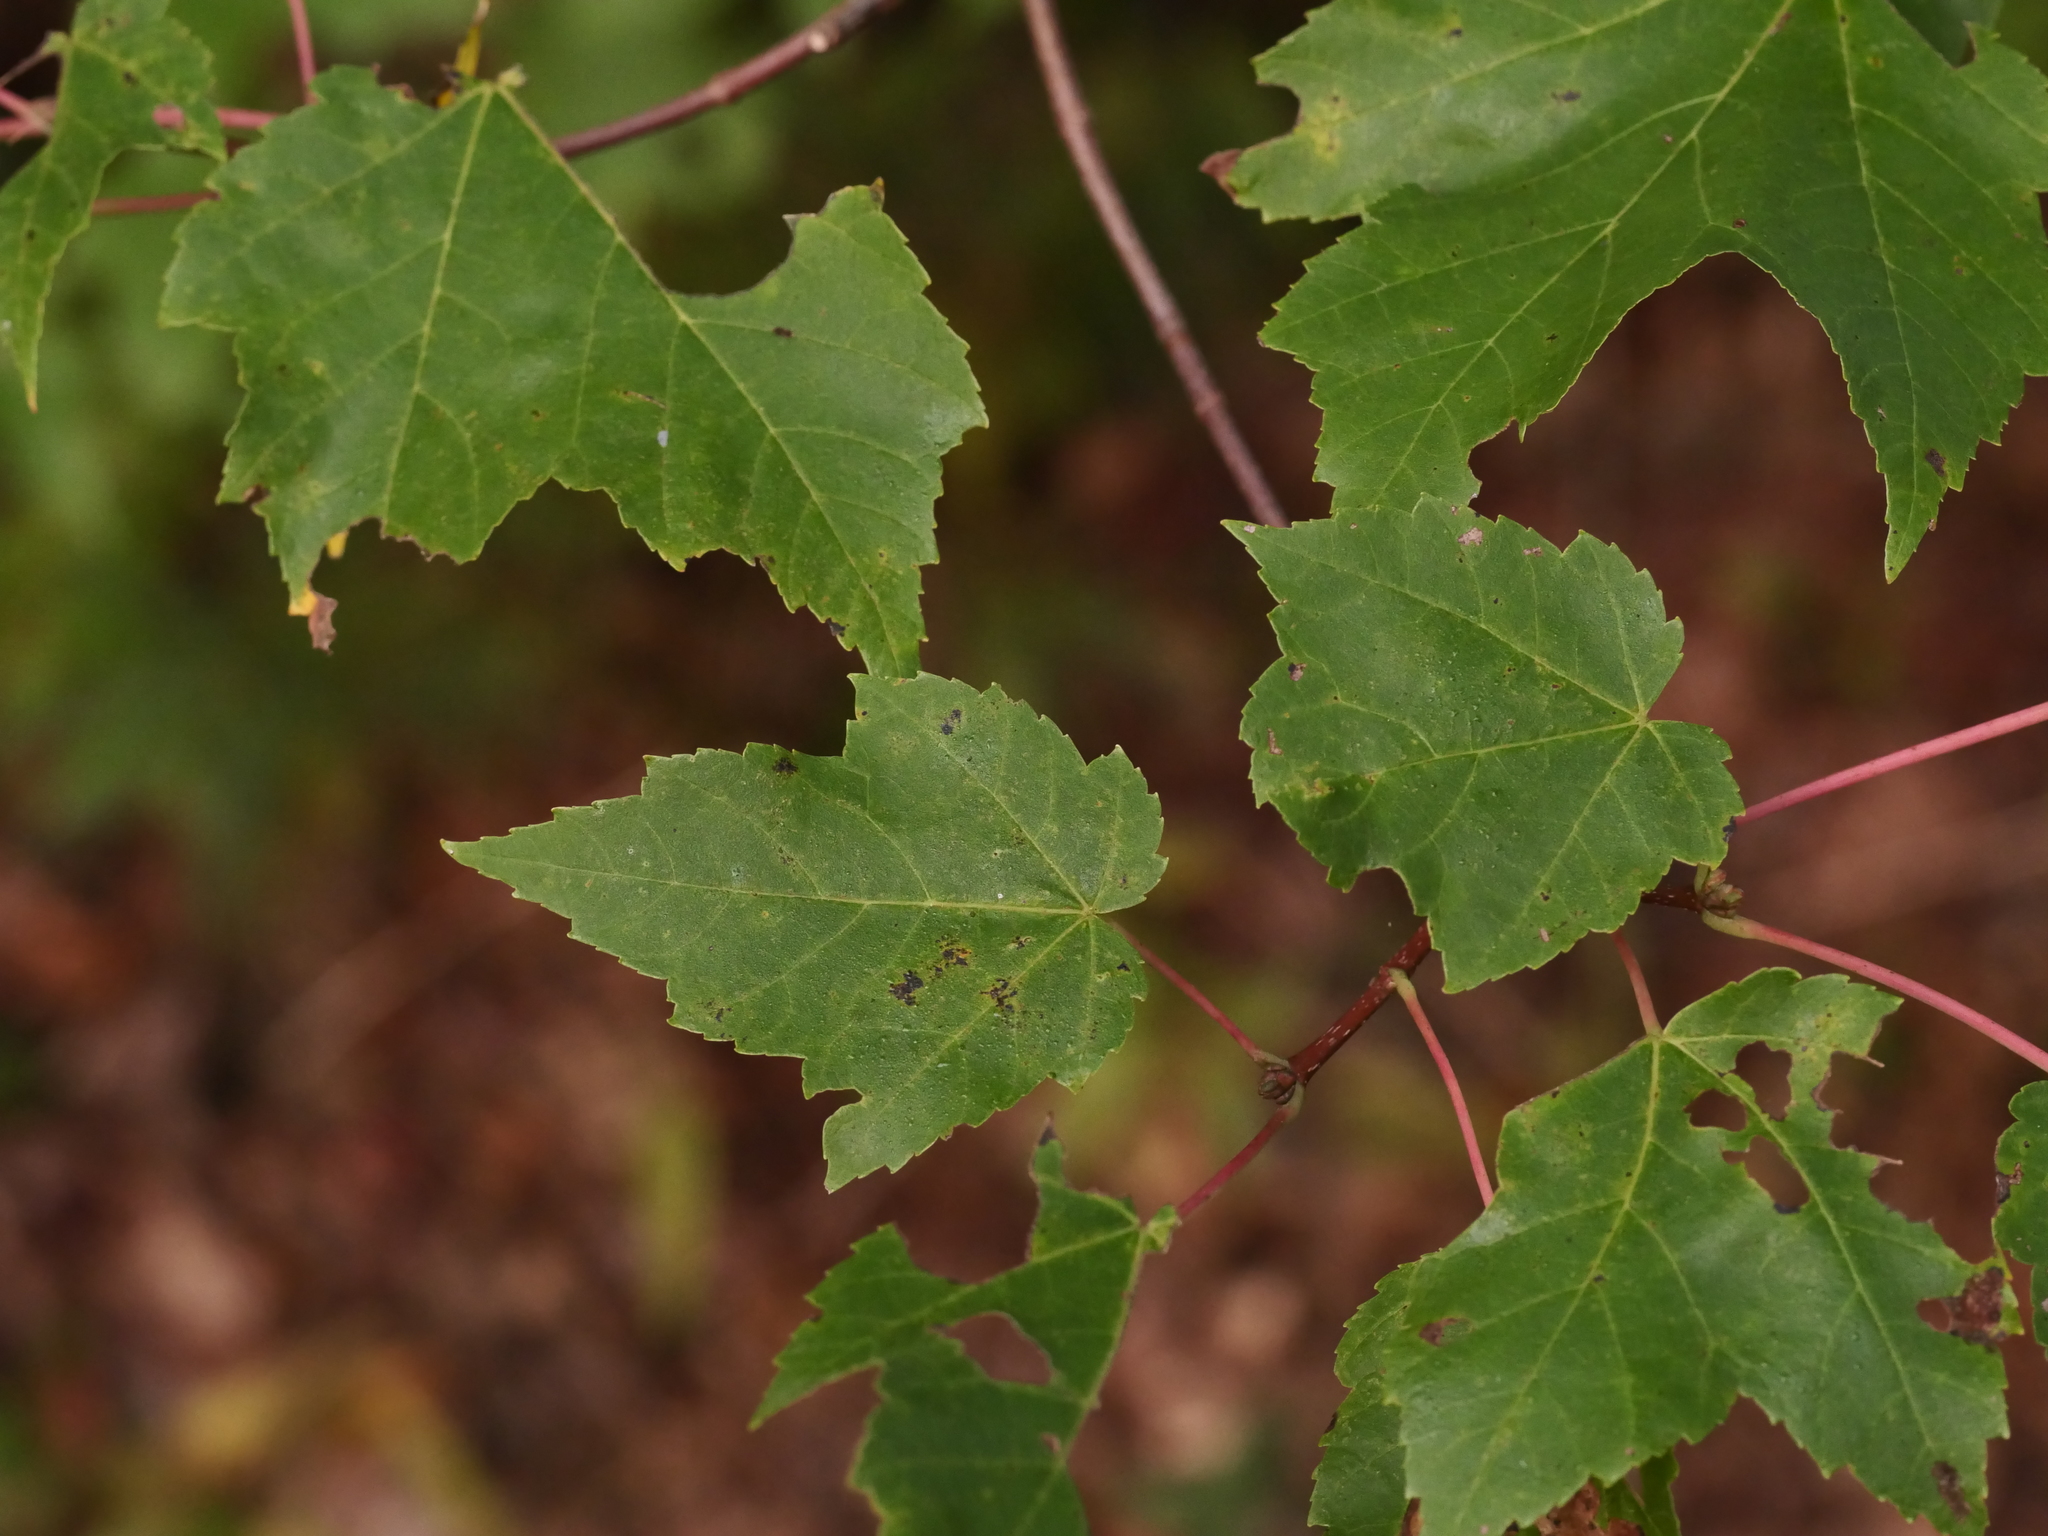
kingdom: Plantae
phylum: Tracheophyta
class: Magnoliopsida
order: Sapindales
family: Sapindaceae
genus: Acer
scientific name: Acer rubrum
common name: Red maple
